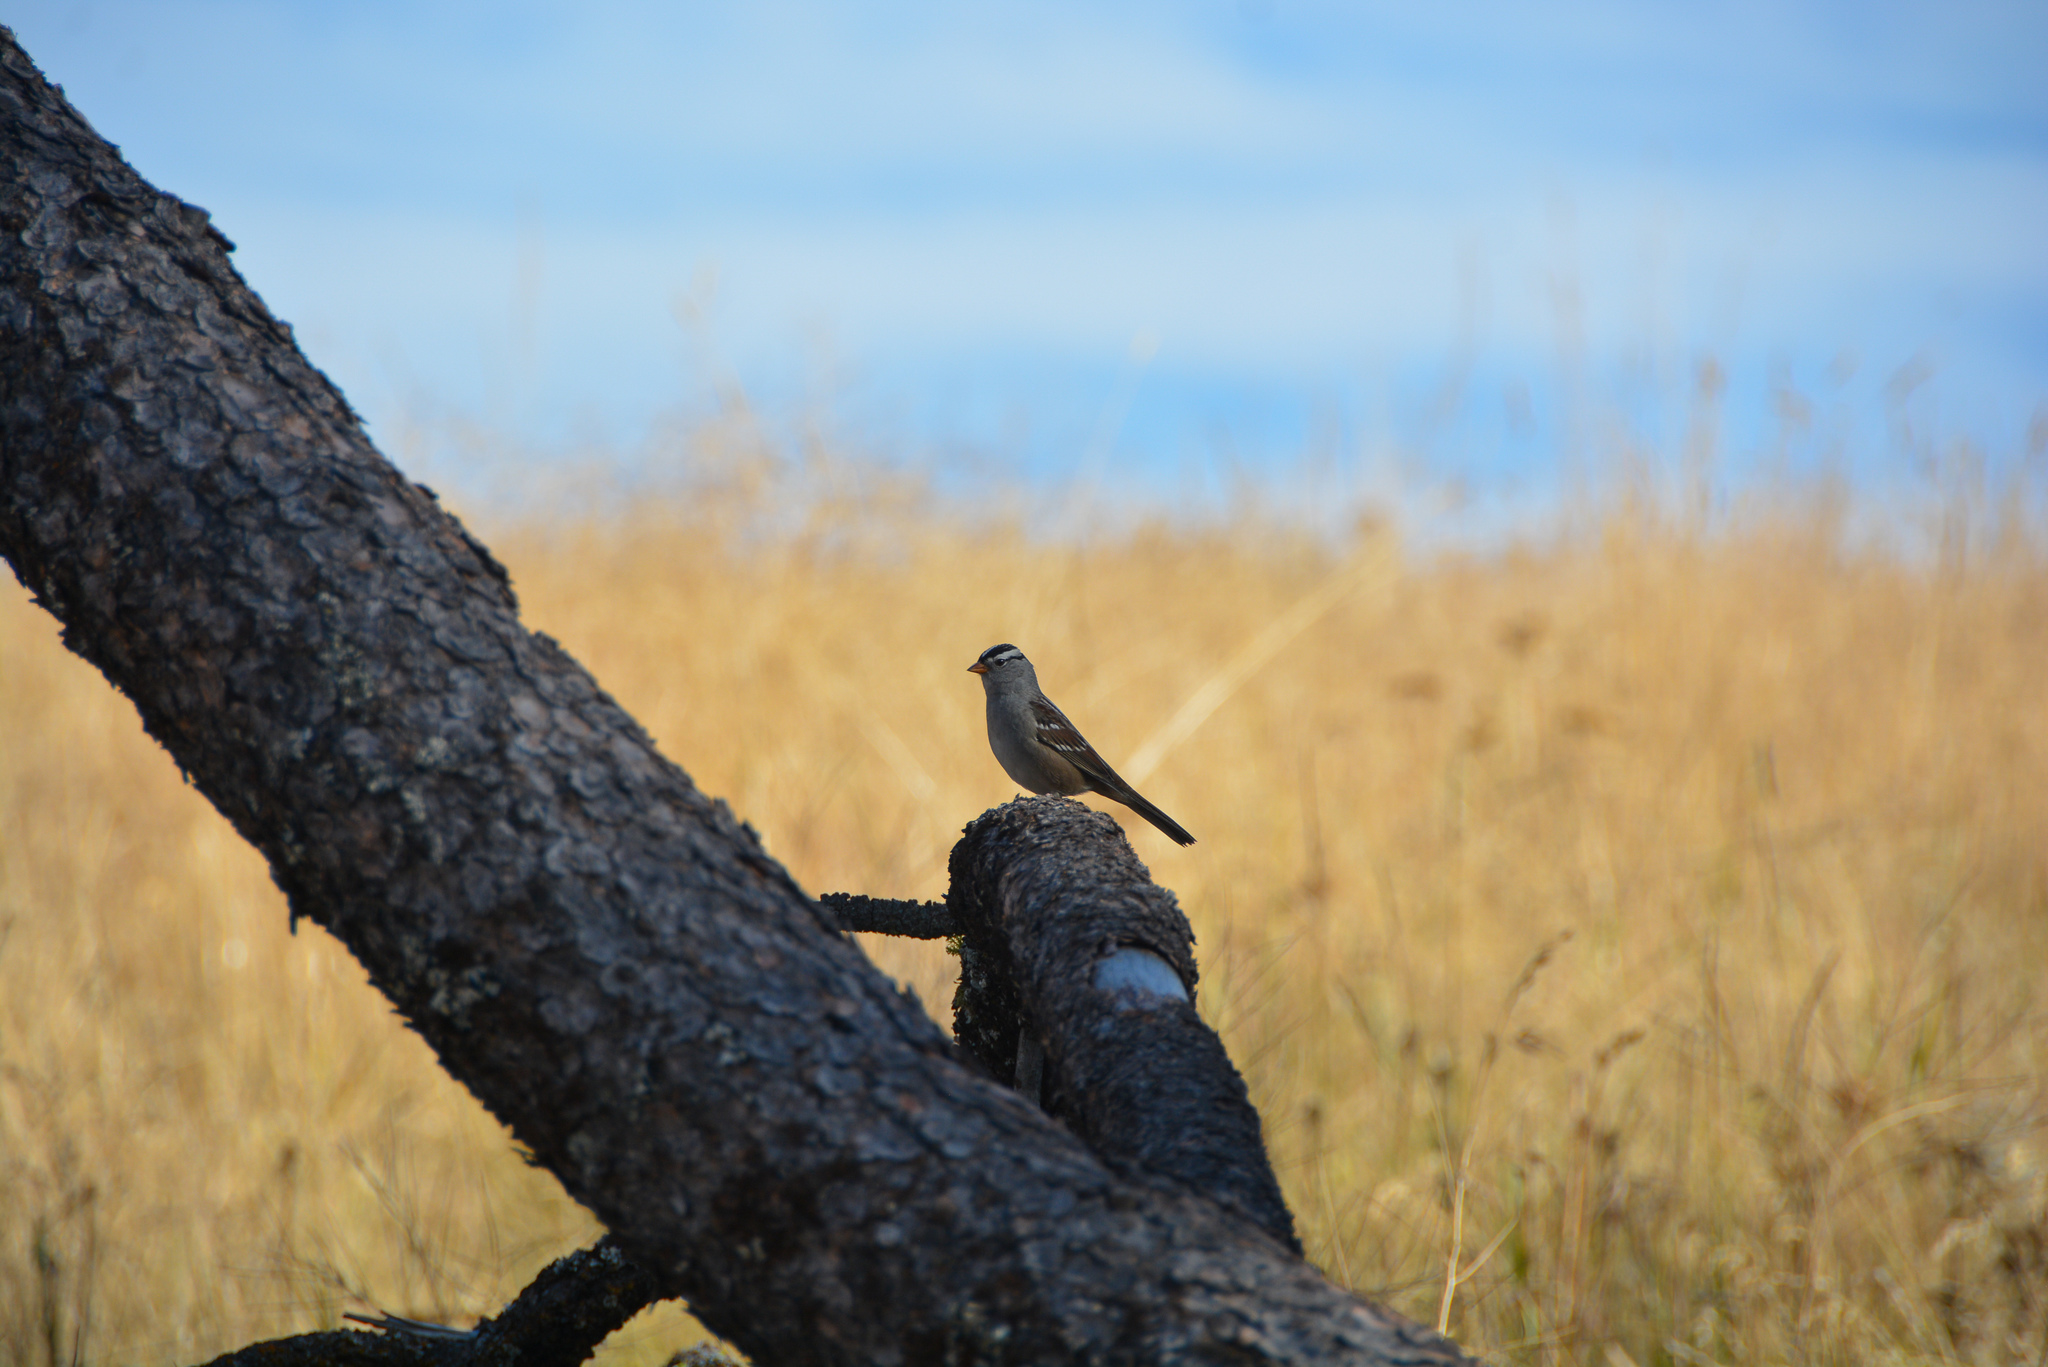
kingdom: Animalia
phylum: Chordata
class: Aves
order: Passeriformes
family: Passerellidae
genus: Zonotrichia
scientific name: Zonotrichia leucophrys
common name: White-crowned sparrow
